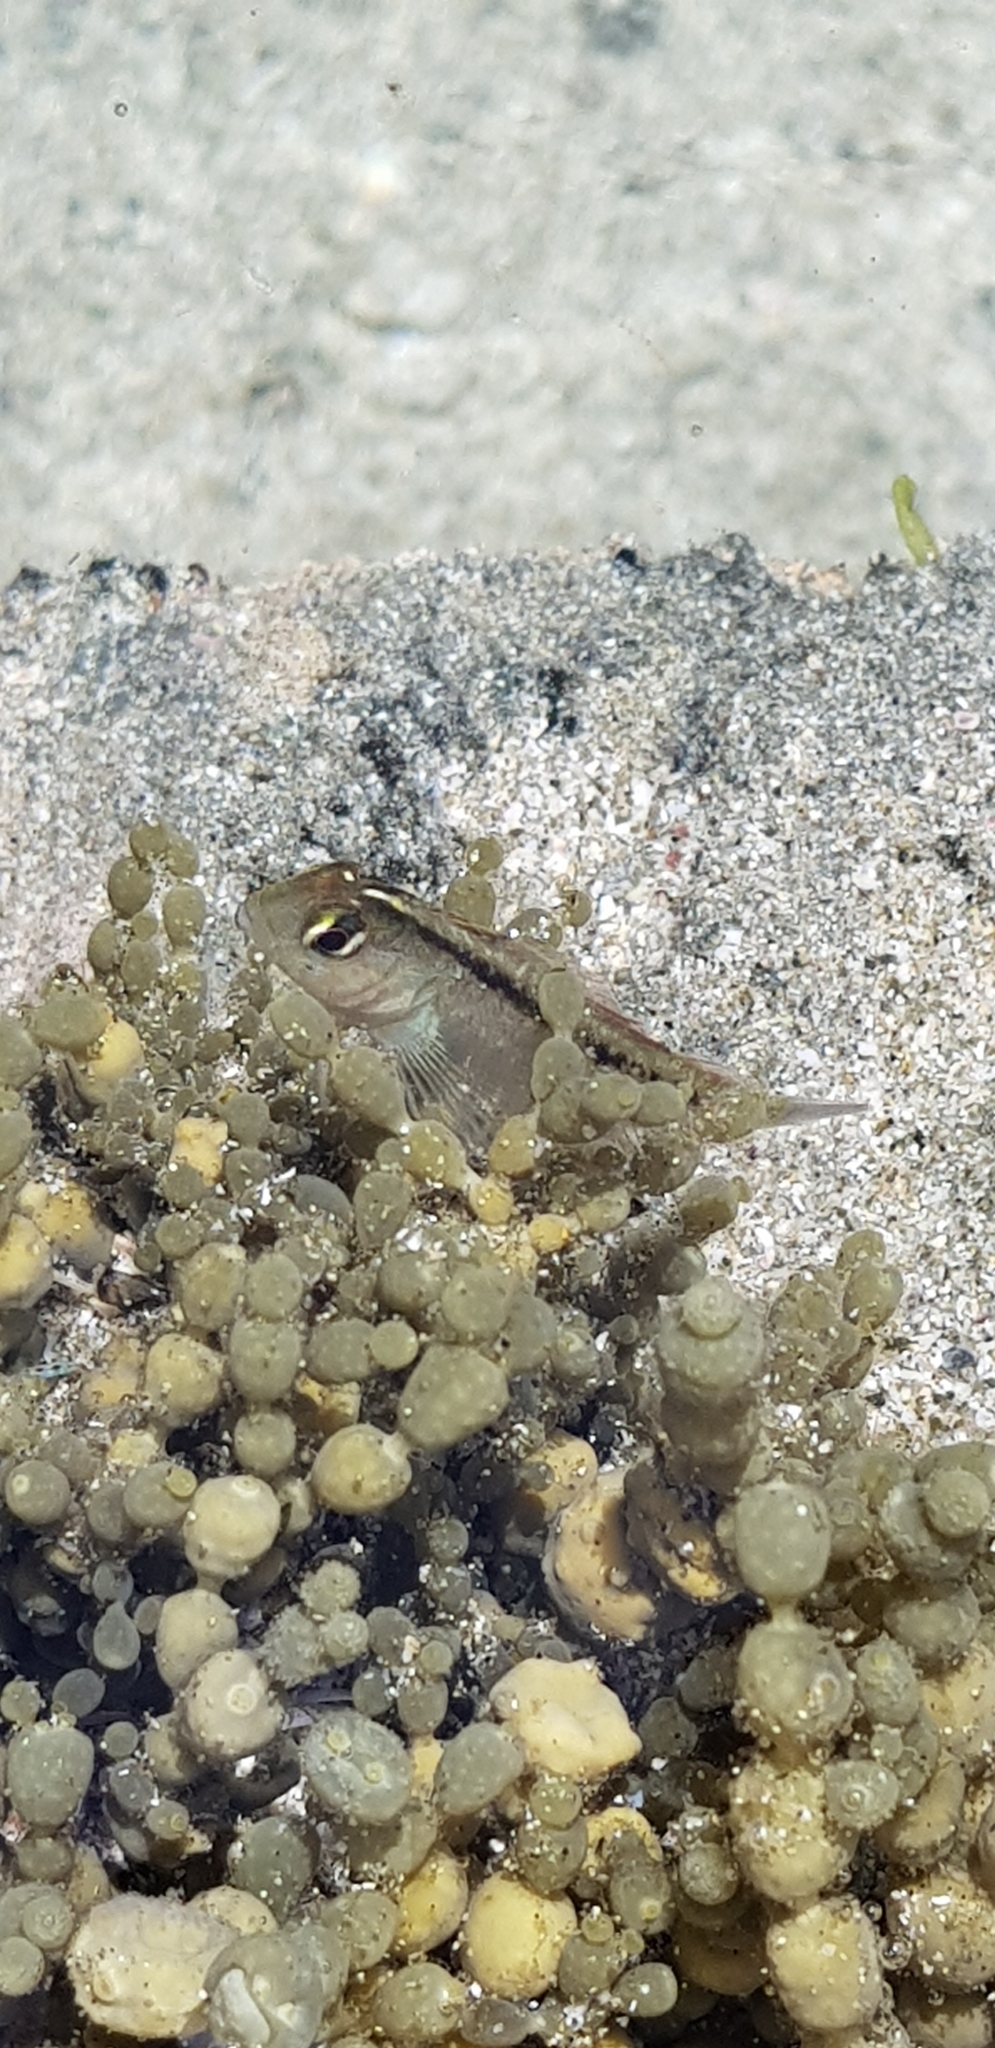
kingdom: Animalia
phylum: Chordata
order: Perciformes
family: Tripterygiidae
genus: Forsterygion
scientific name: Forsterygion lapillum
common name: Common triplefin
